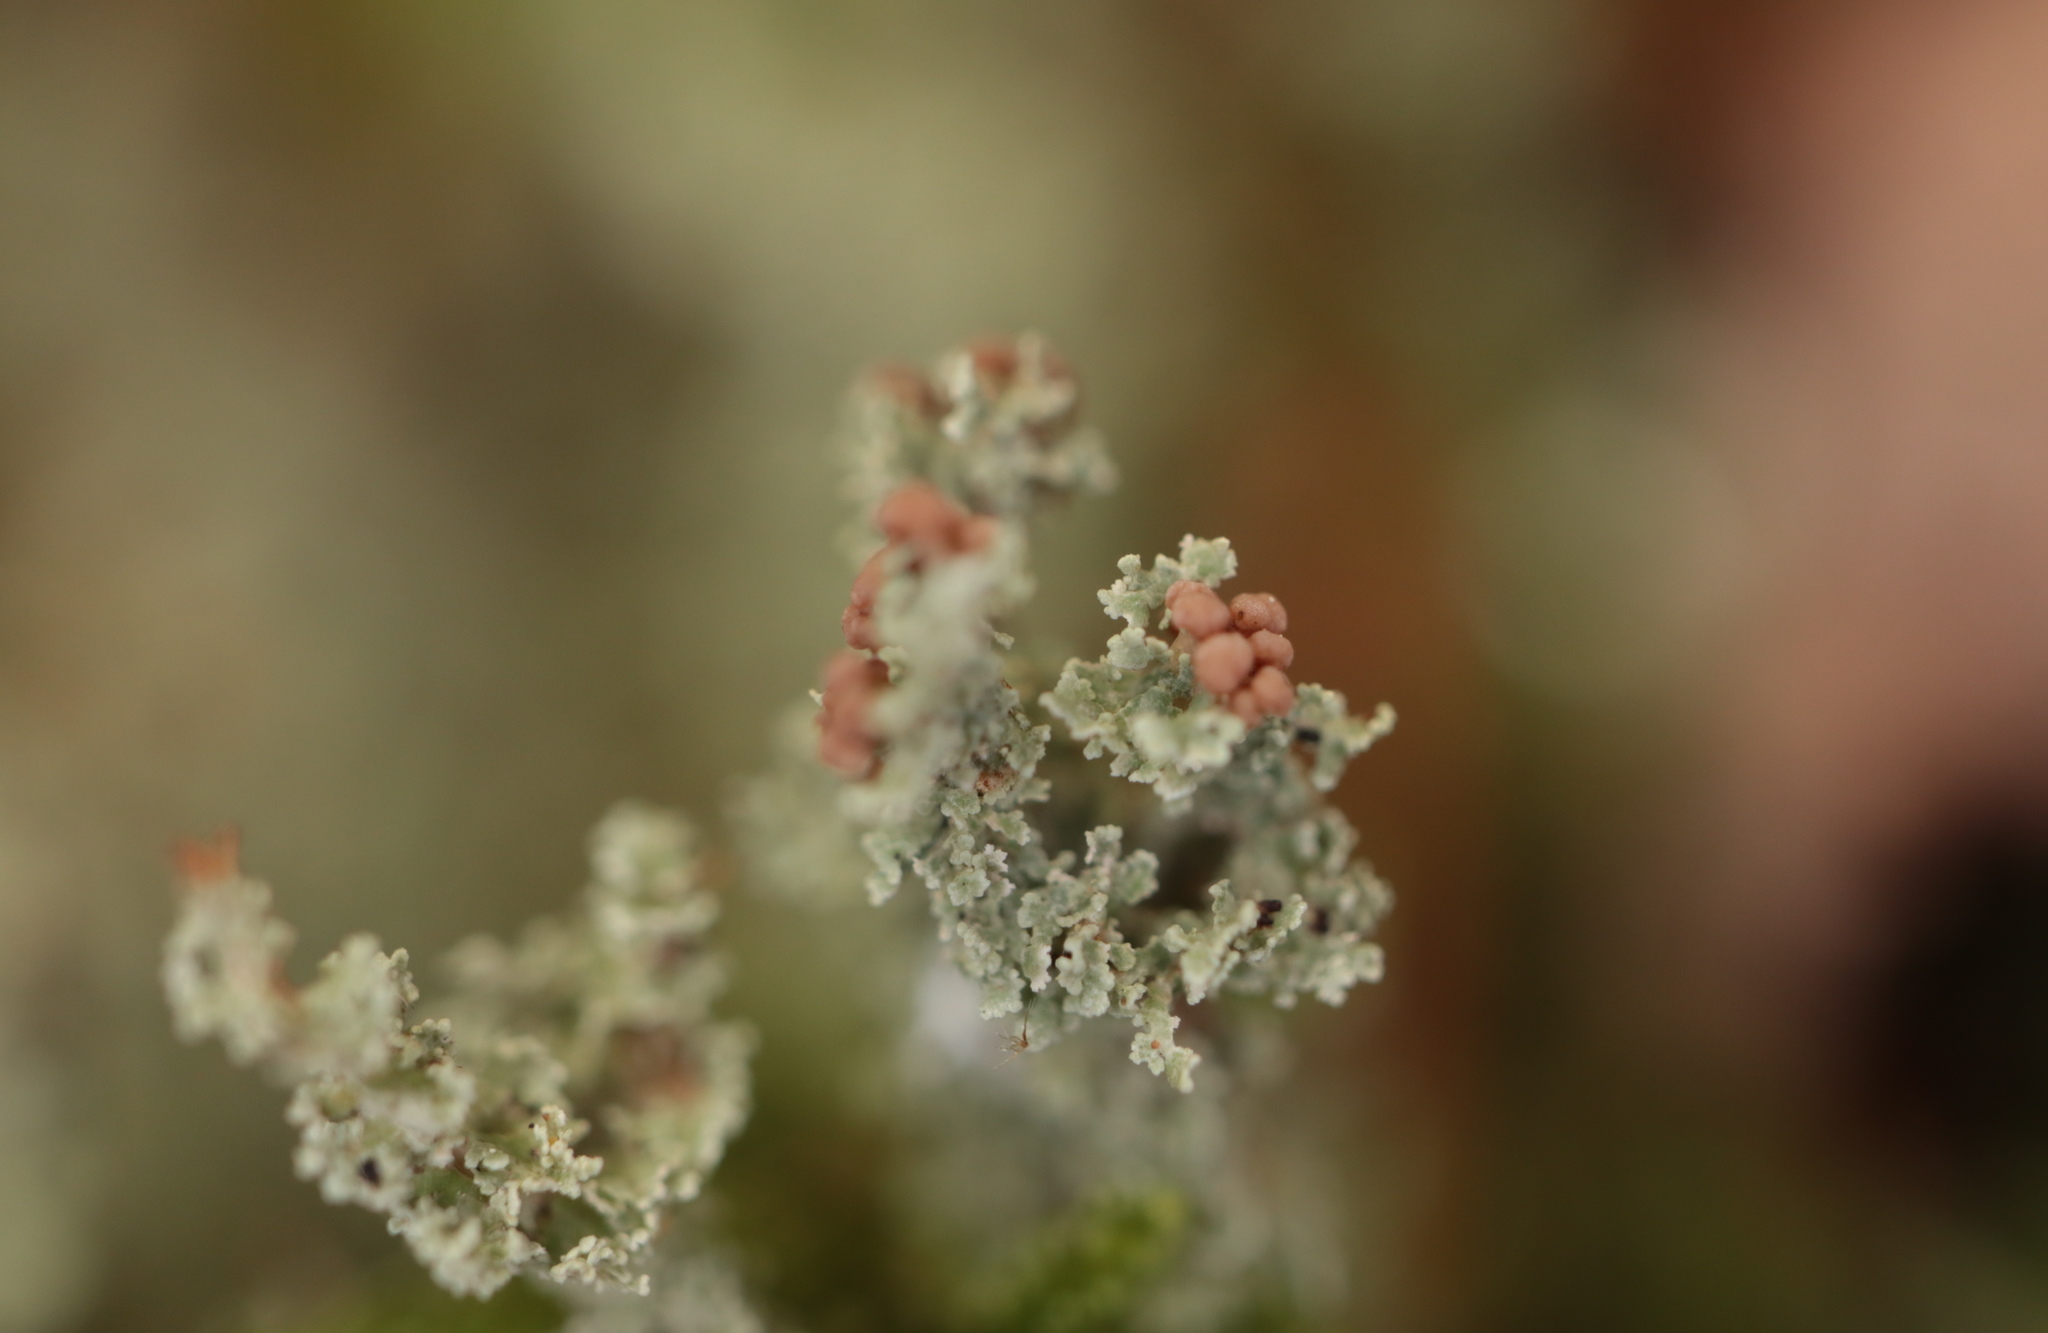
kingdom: Fungi
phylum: Ascomycota
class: Lecanoromycetes
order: Lecanorales
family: Cladoniaceae
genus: Cladonia
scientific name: Cladonia squamosa
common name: Dragon horn
